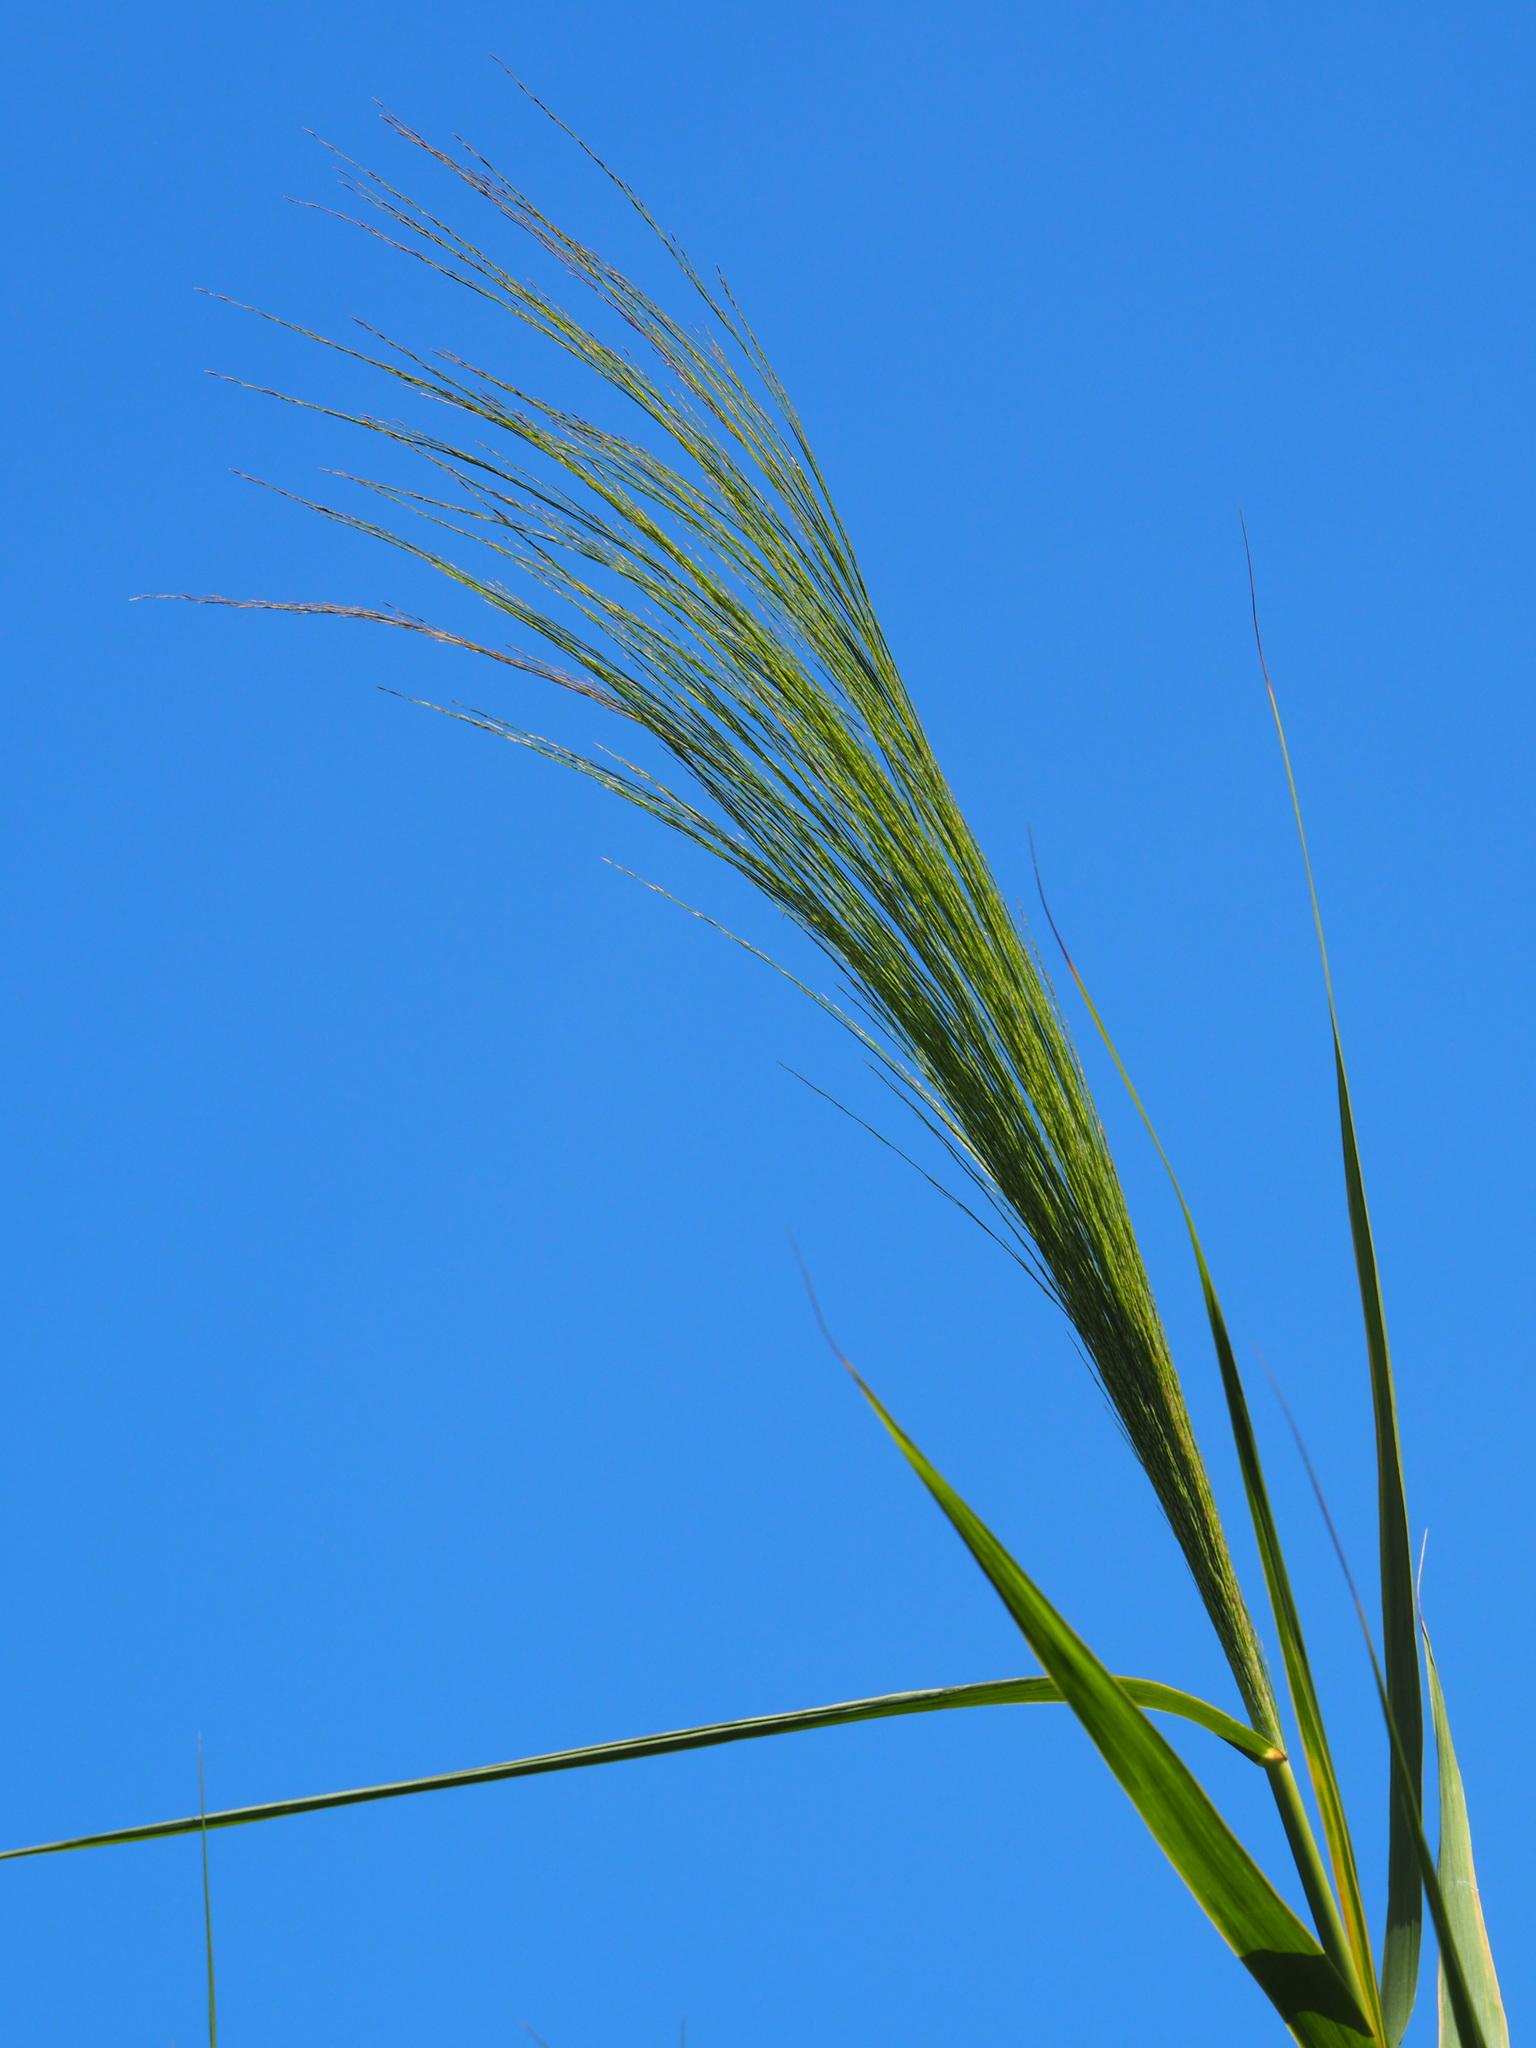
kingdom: Plantae
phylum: Tracheophyta
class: Liliopsida
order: Poales
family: Poaceae
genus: Phragmites
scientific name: Phragmites karka
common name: Tropical reed
